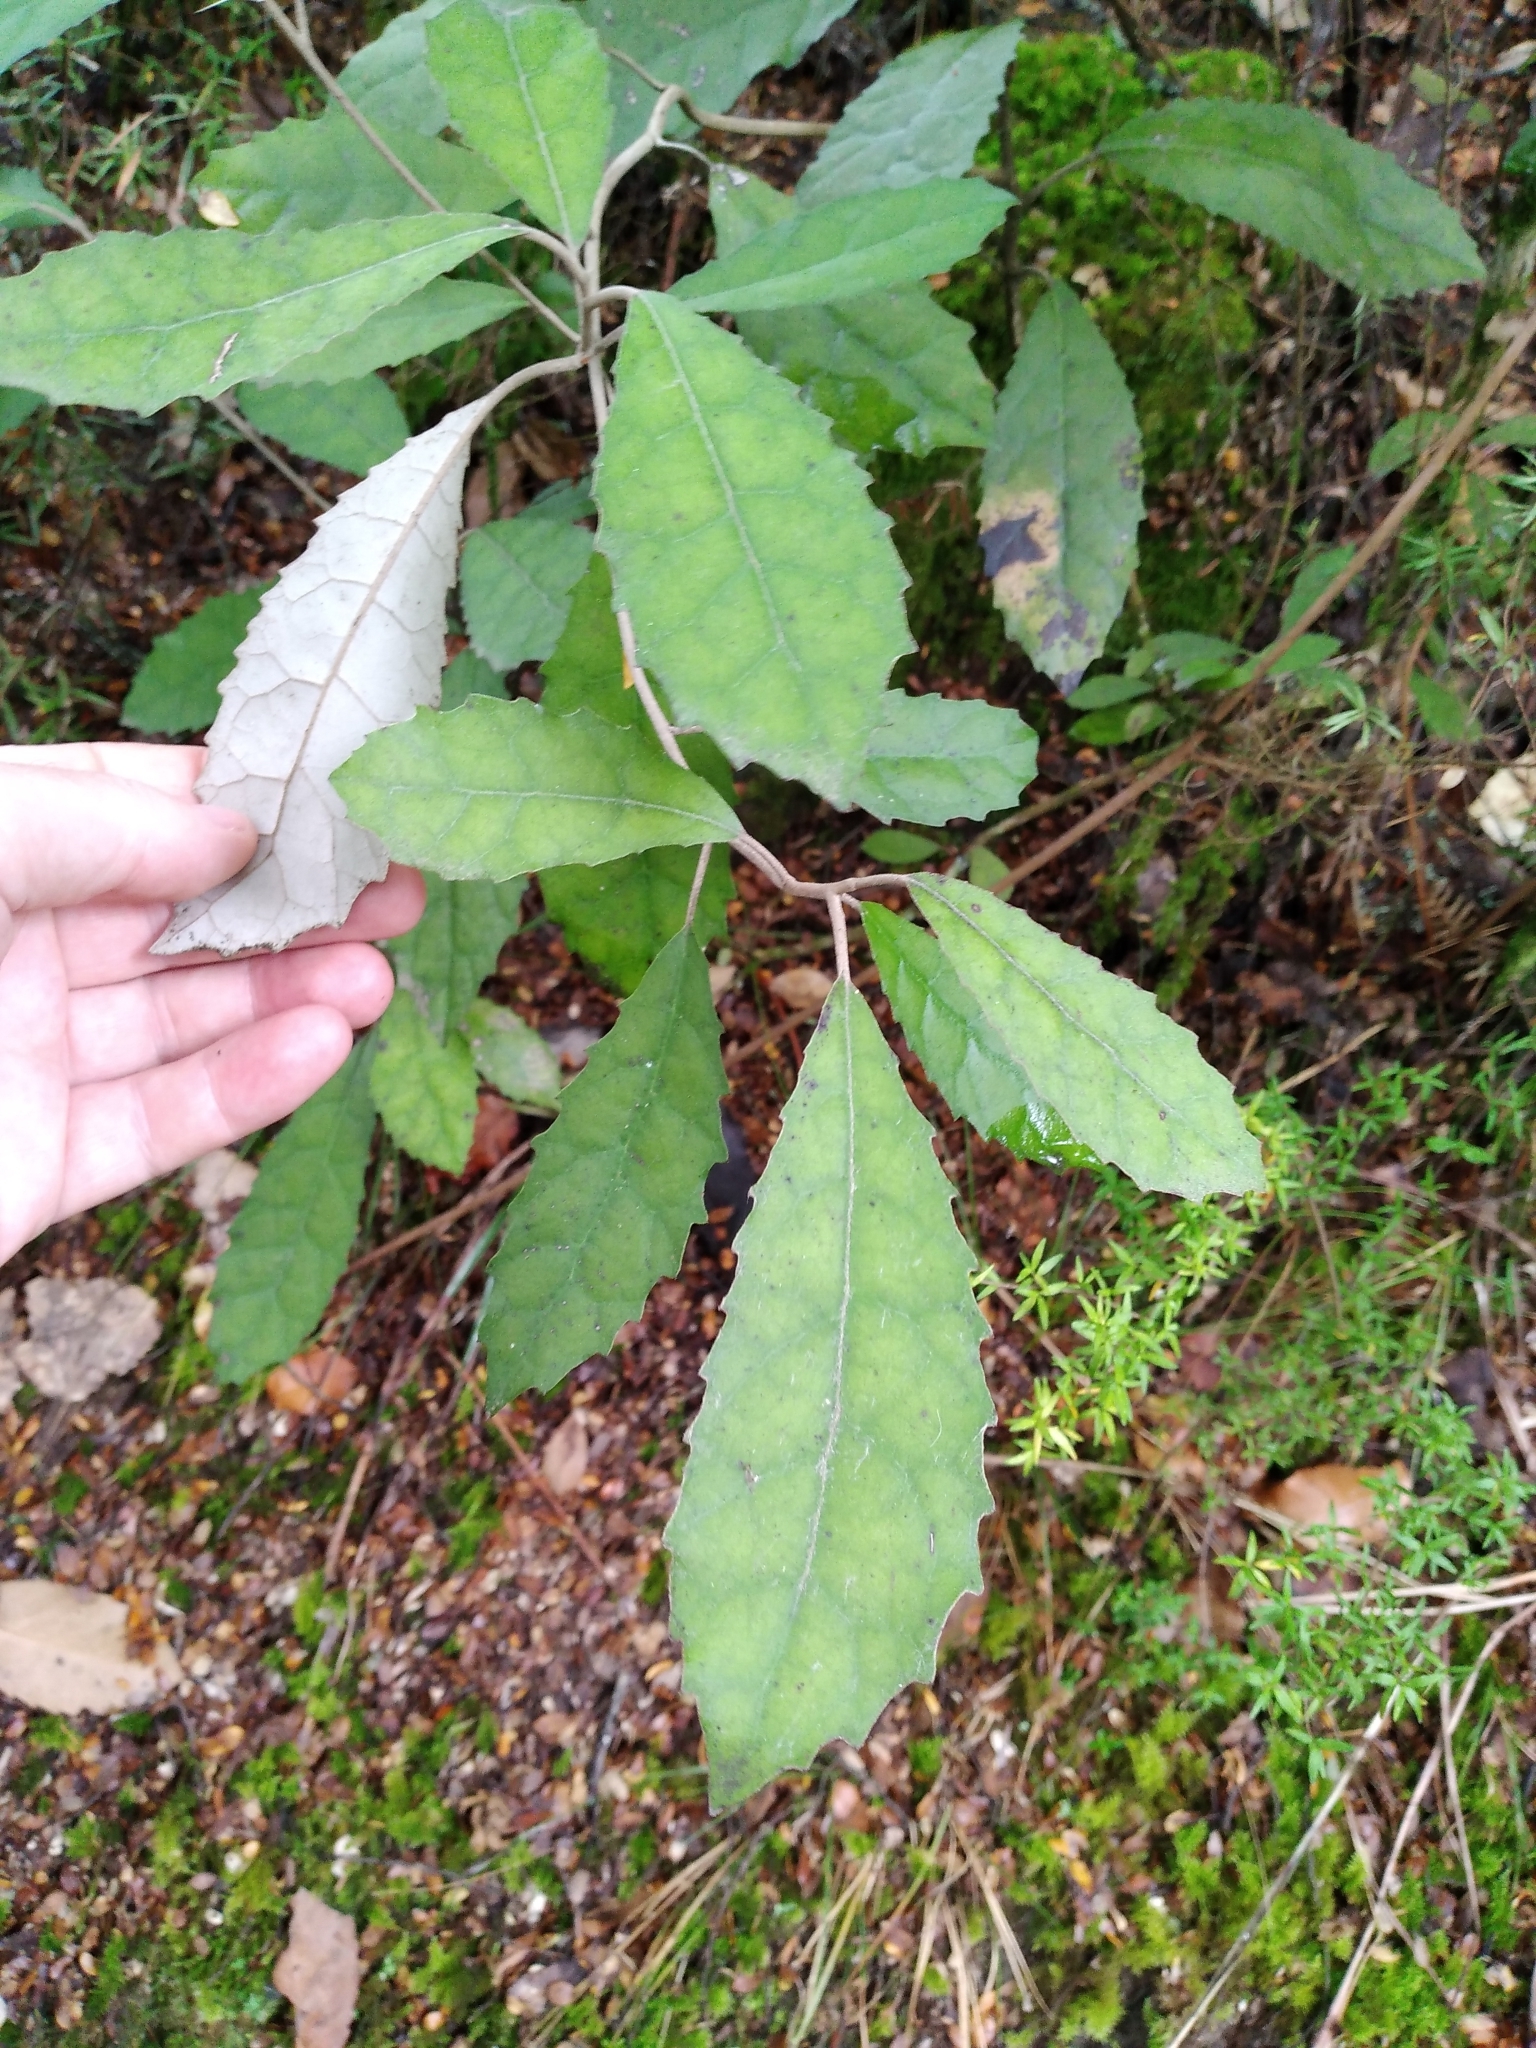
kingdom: Plantae
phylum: Tracheophyta
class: Magnoliopsida
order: Asterales
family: Asteraceae
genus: Olearia
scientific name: Olearia rani
